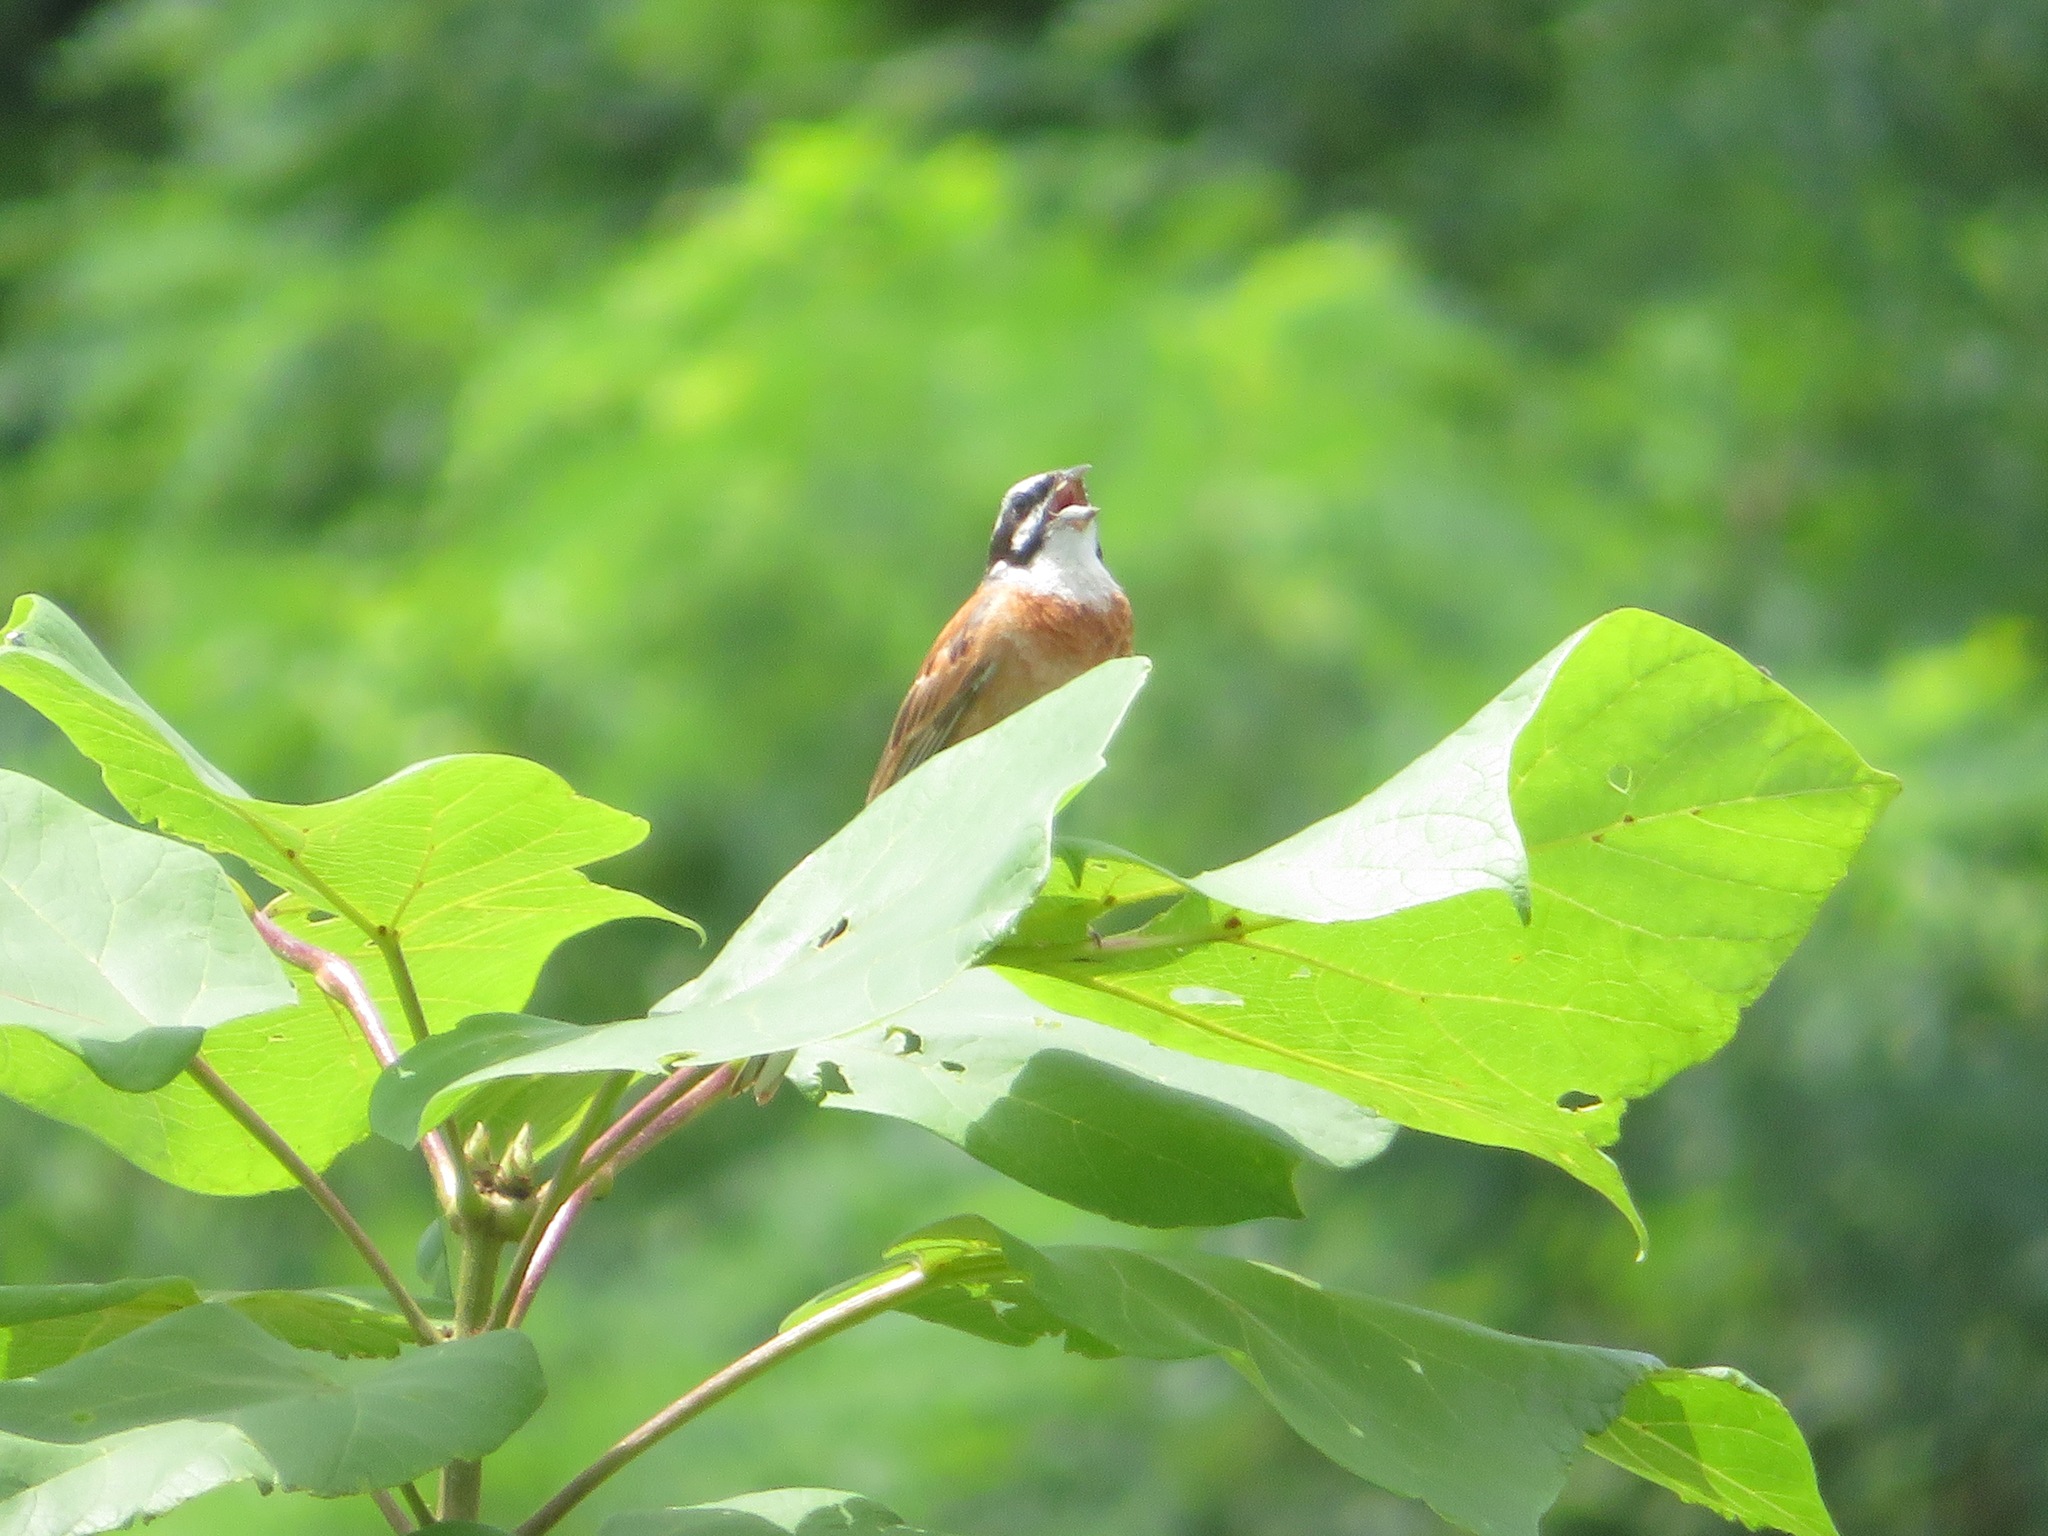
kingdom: Animalia
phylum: Chordata
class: Aves
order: Passeriformes
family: Emberizidae
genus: Emberiza
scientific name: Emberiza cioides
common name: Meadow bunting
